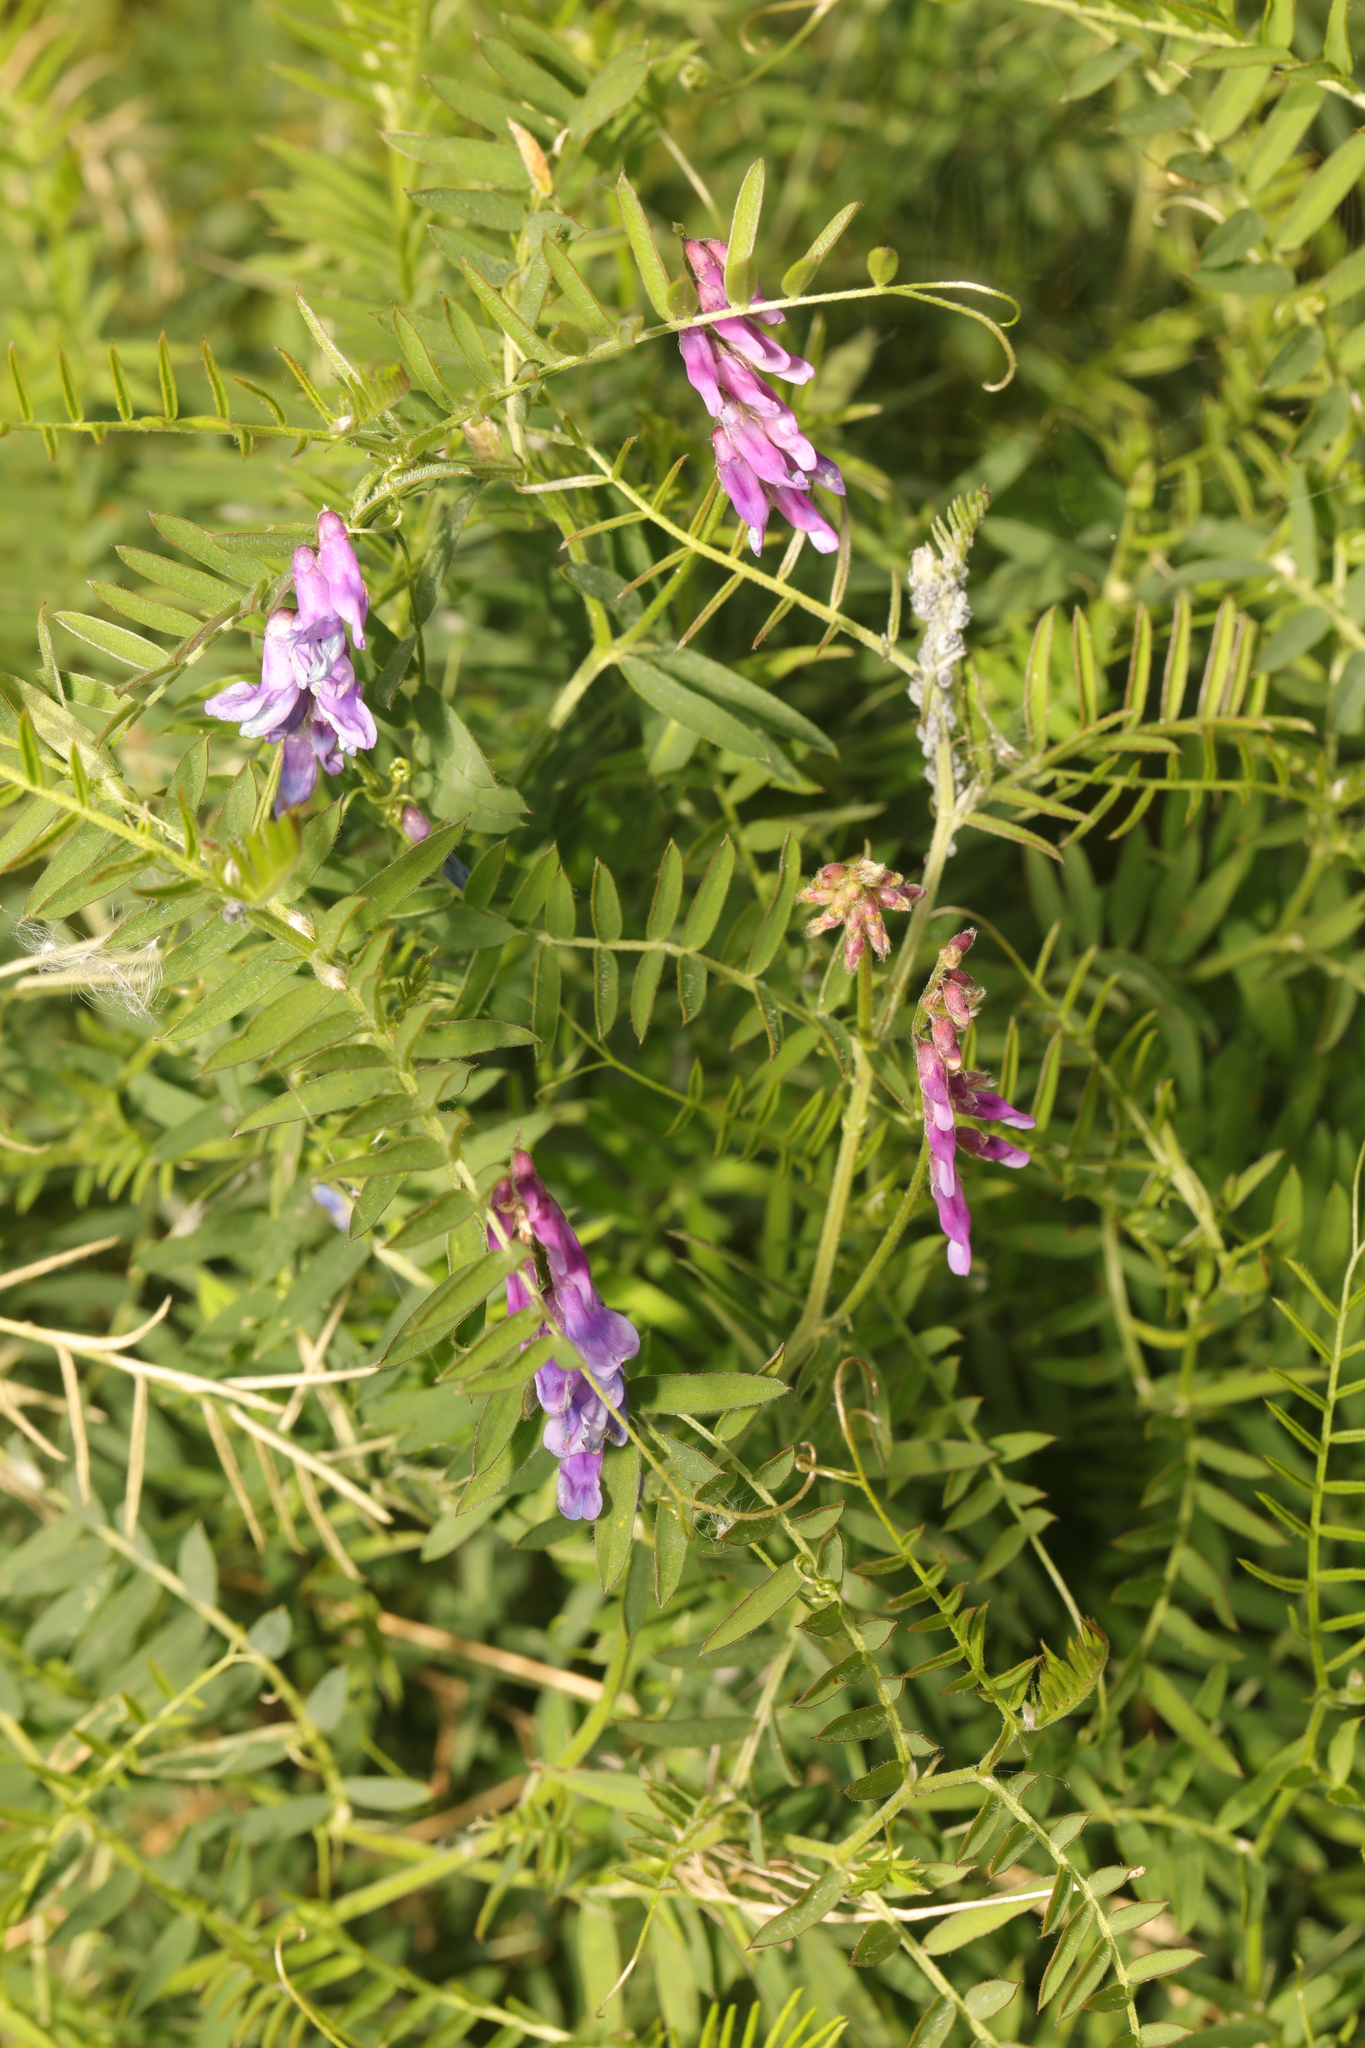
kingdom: Plantae
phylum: Tracheophyta
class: Magnoliopsida
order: Fabales
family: Fabaceae
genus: Vicia
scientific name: Vicia cracca
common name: Bird vetch
